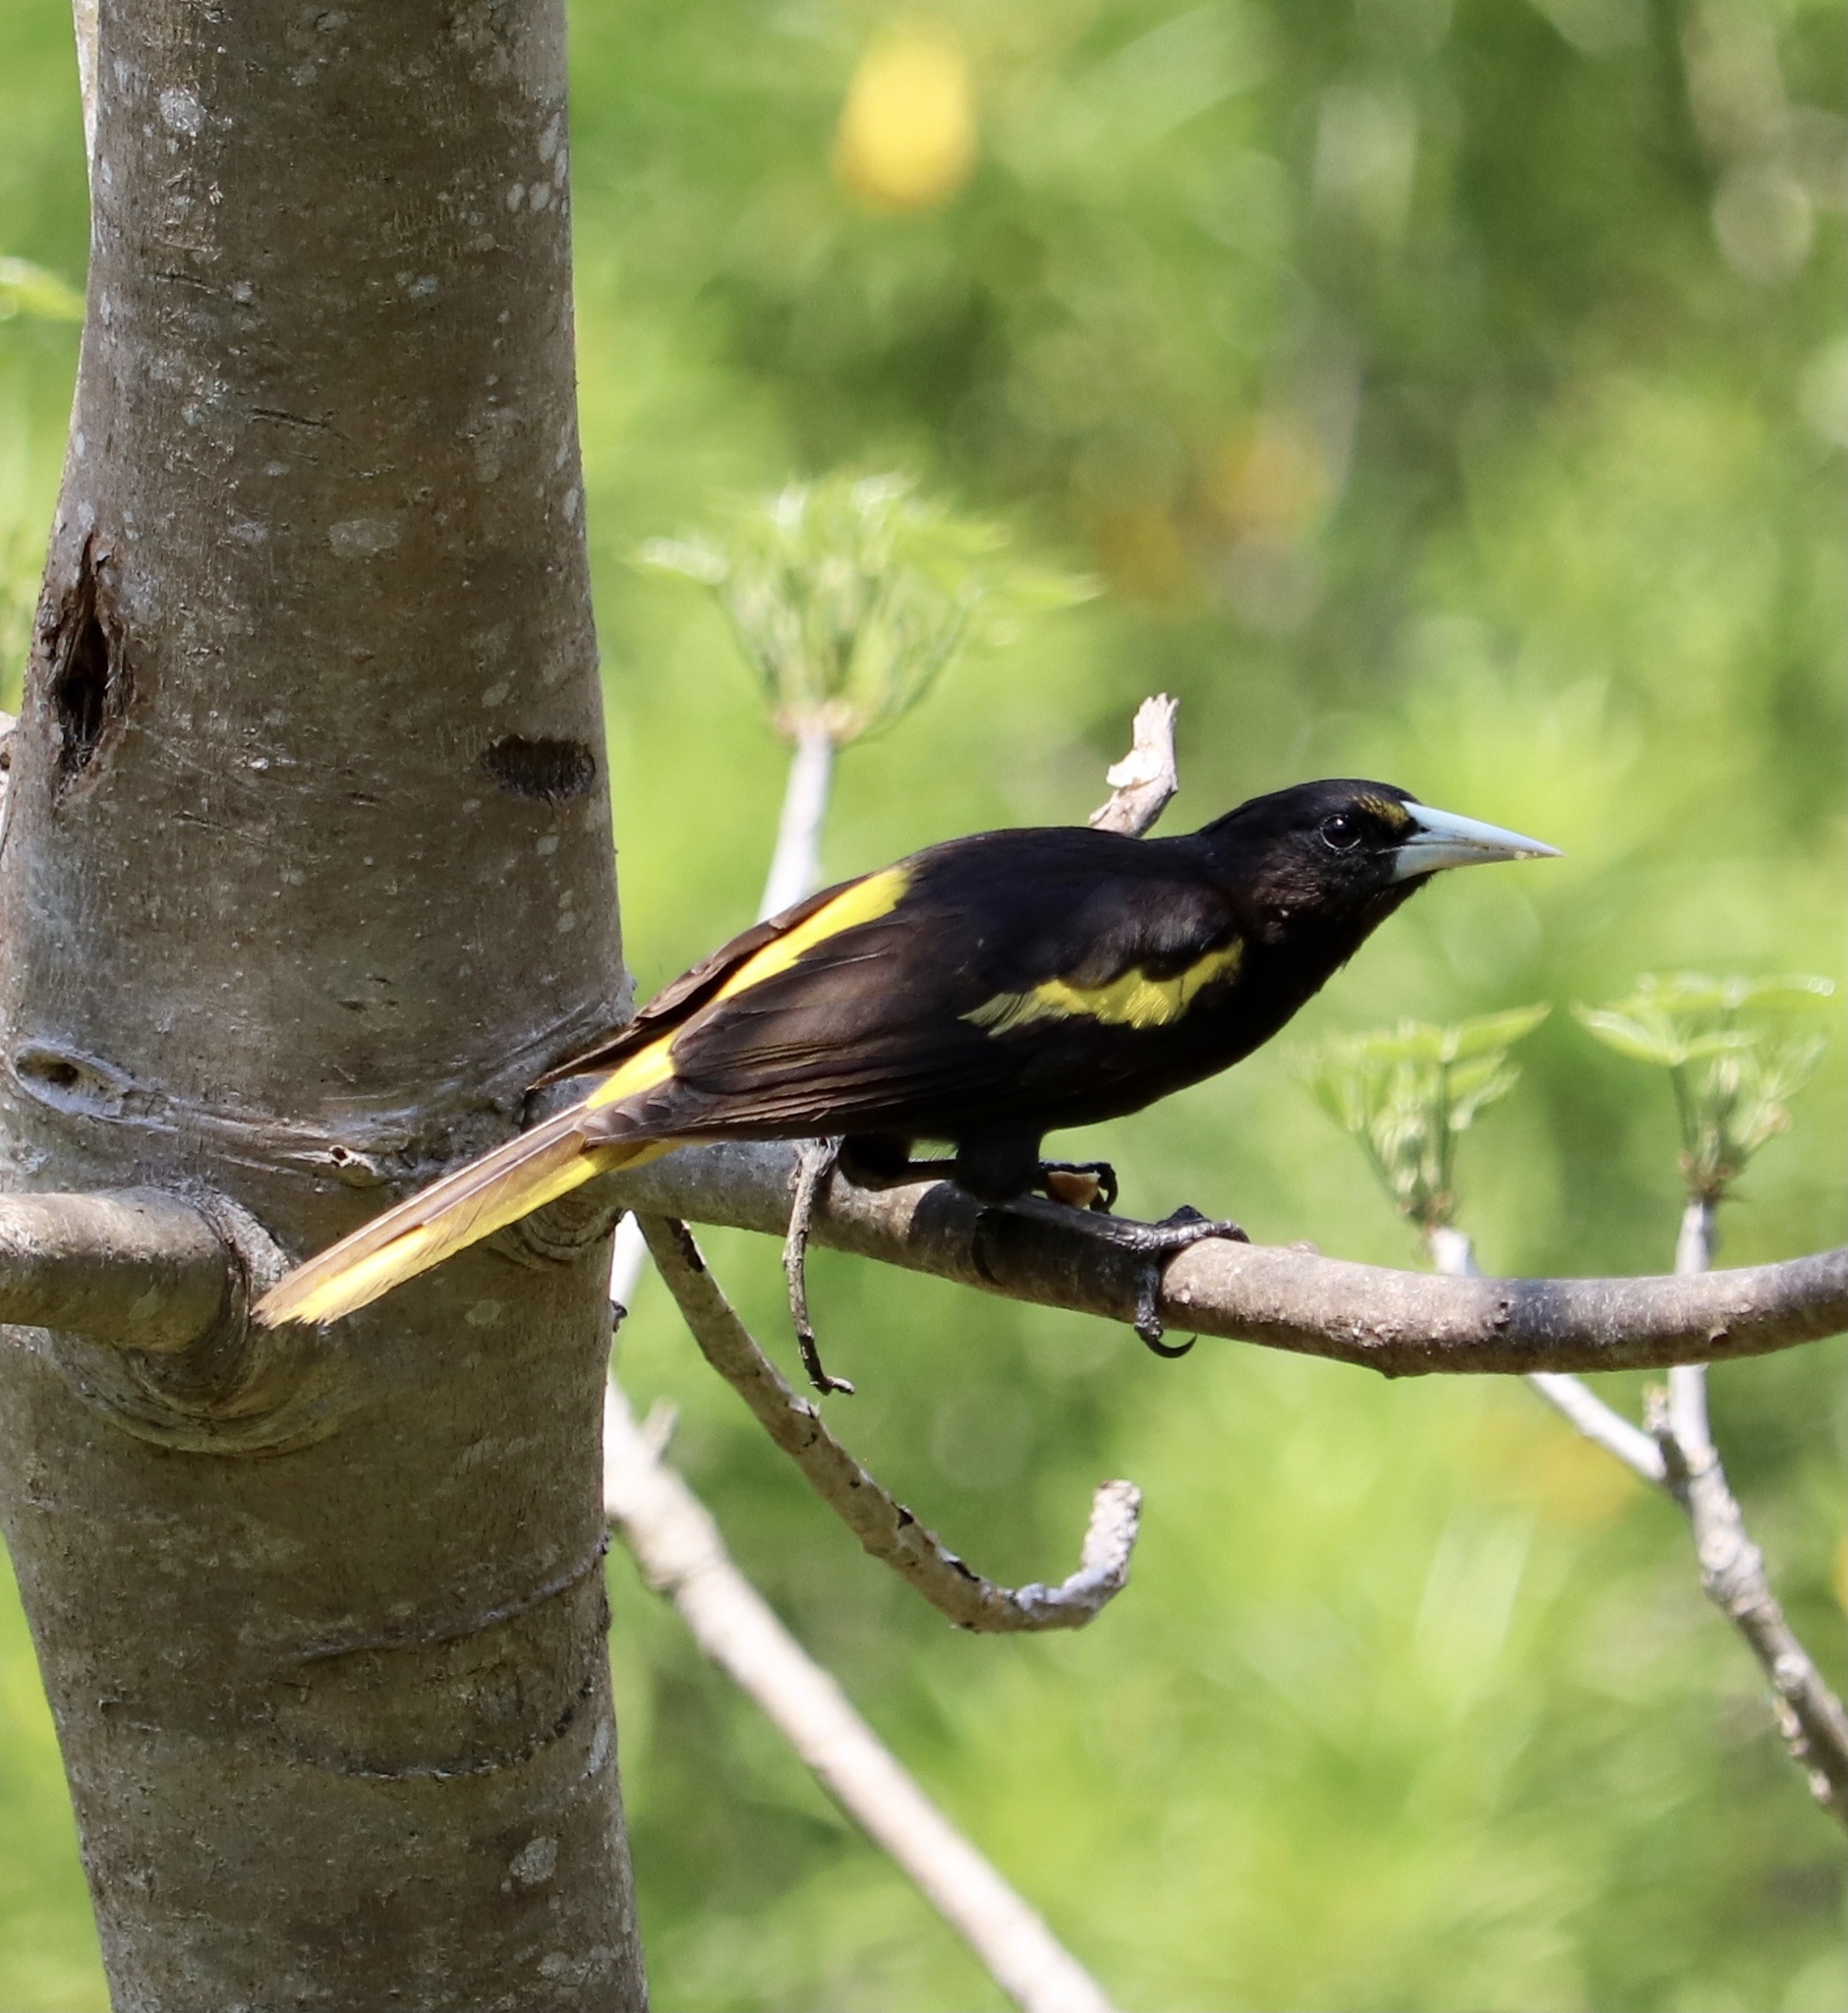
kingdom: Animalia
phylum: Chordata
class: Aves
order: Passeriformes
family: Icteridae
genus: Cacicus
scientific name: Cacicus melanicterus
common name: Yellow-winged cacique
